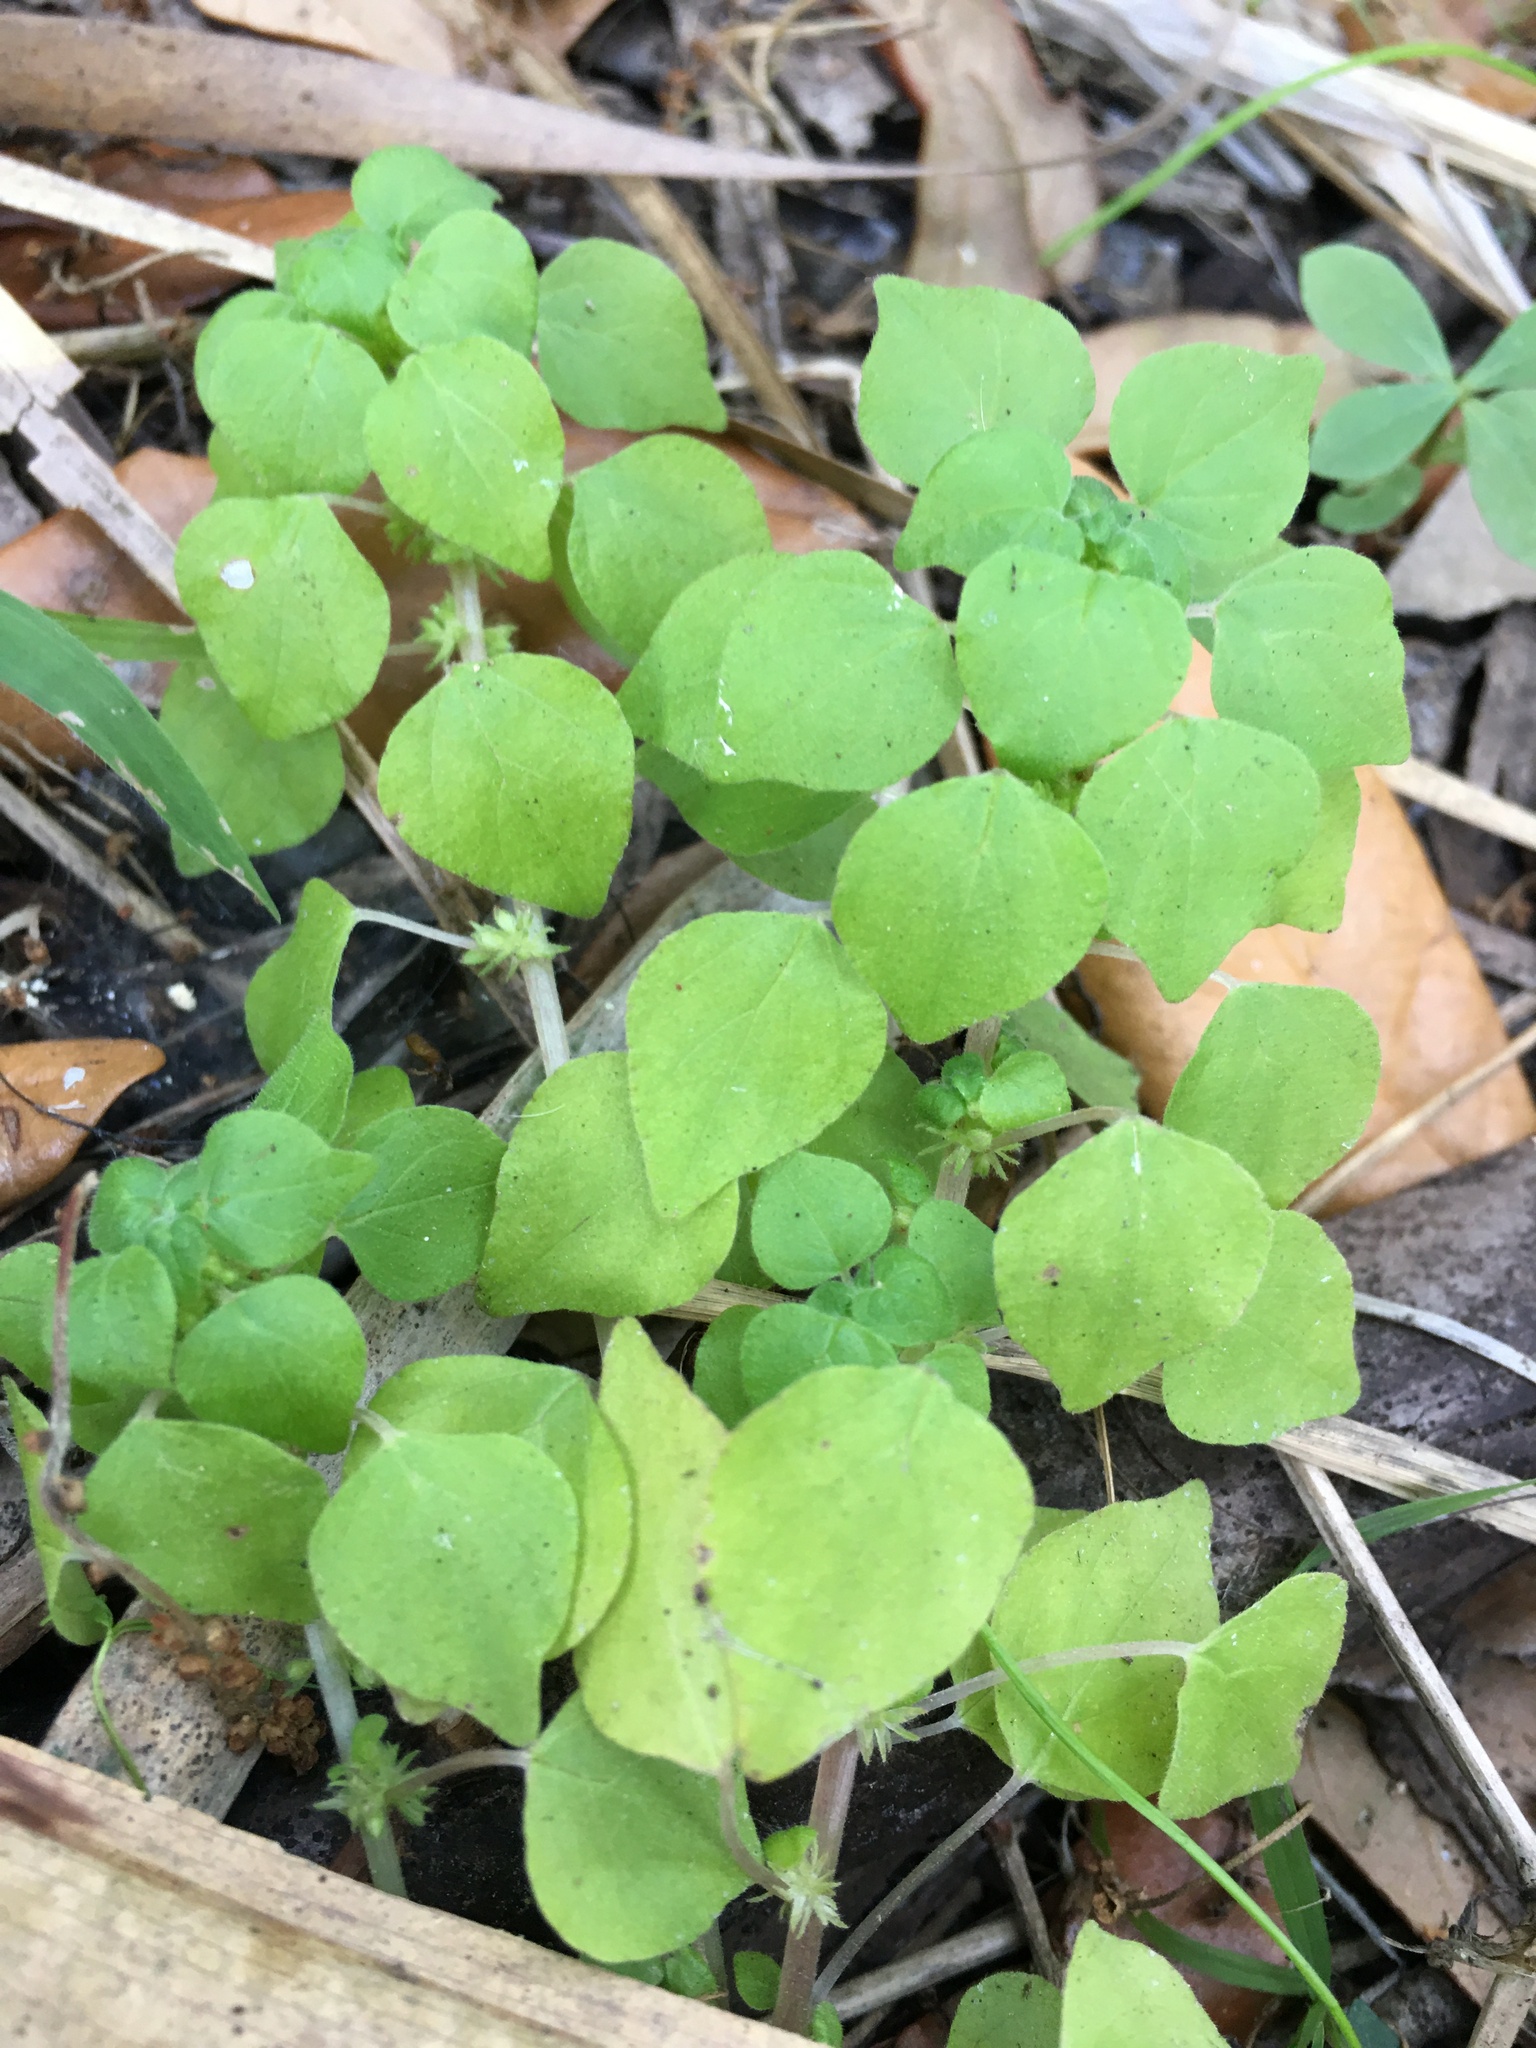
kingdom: Plantae
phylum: Tracheophyta
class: Magnoliopsida
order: Rosales
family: Urticaceae
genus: Parietaria
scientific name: Parietaria floridana
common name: Florida pellitory
